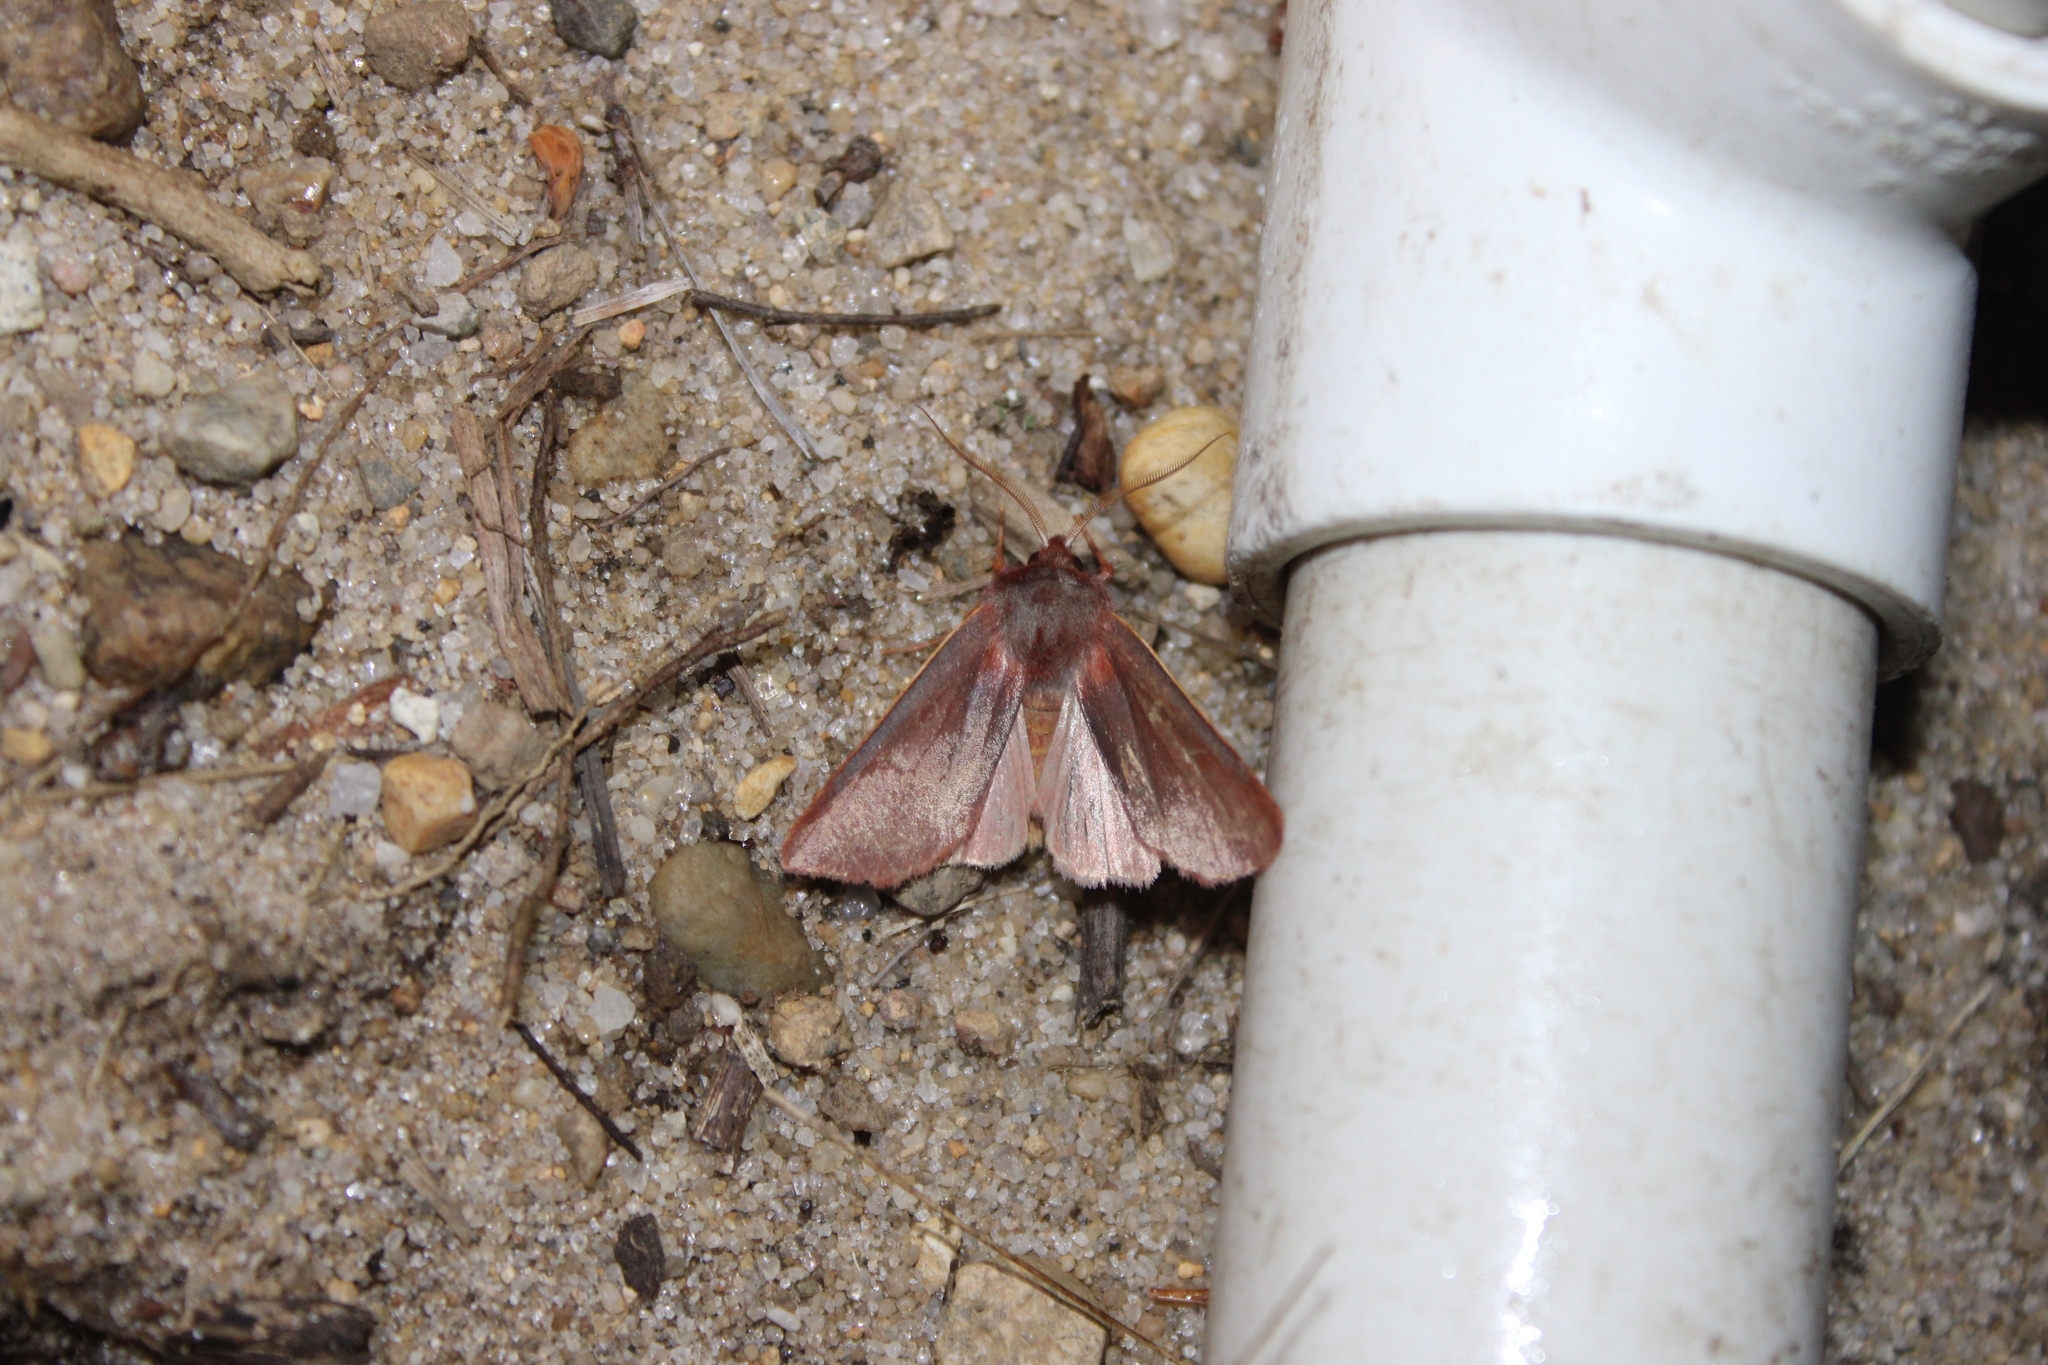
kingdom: Animalia
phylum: Arthropoda
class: Insecta
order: Lepidoptera
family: Noctuidae
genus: Psectraglaea
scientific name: Psectraglaea carnosa
